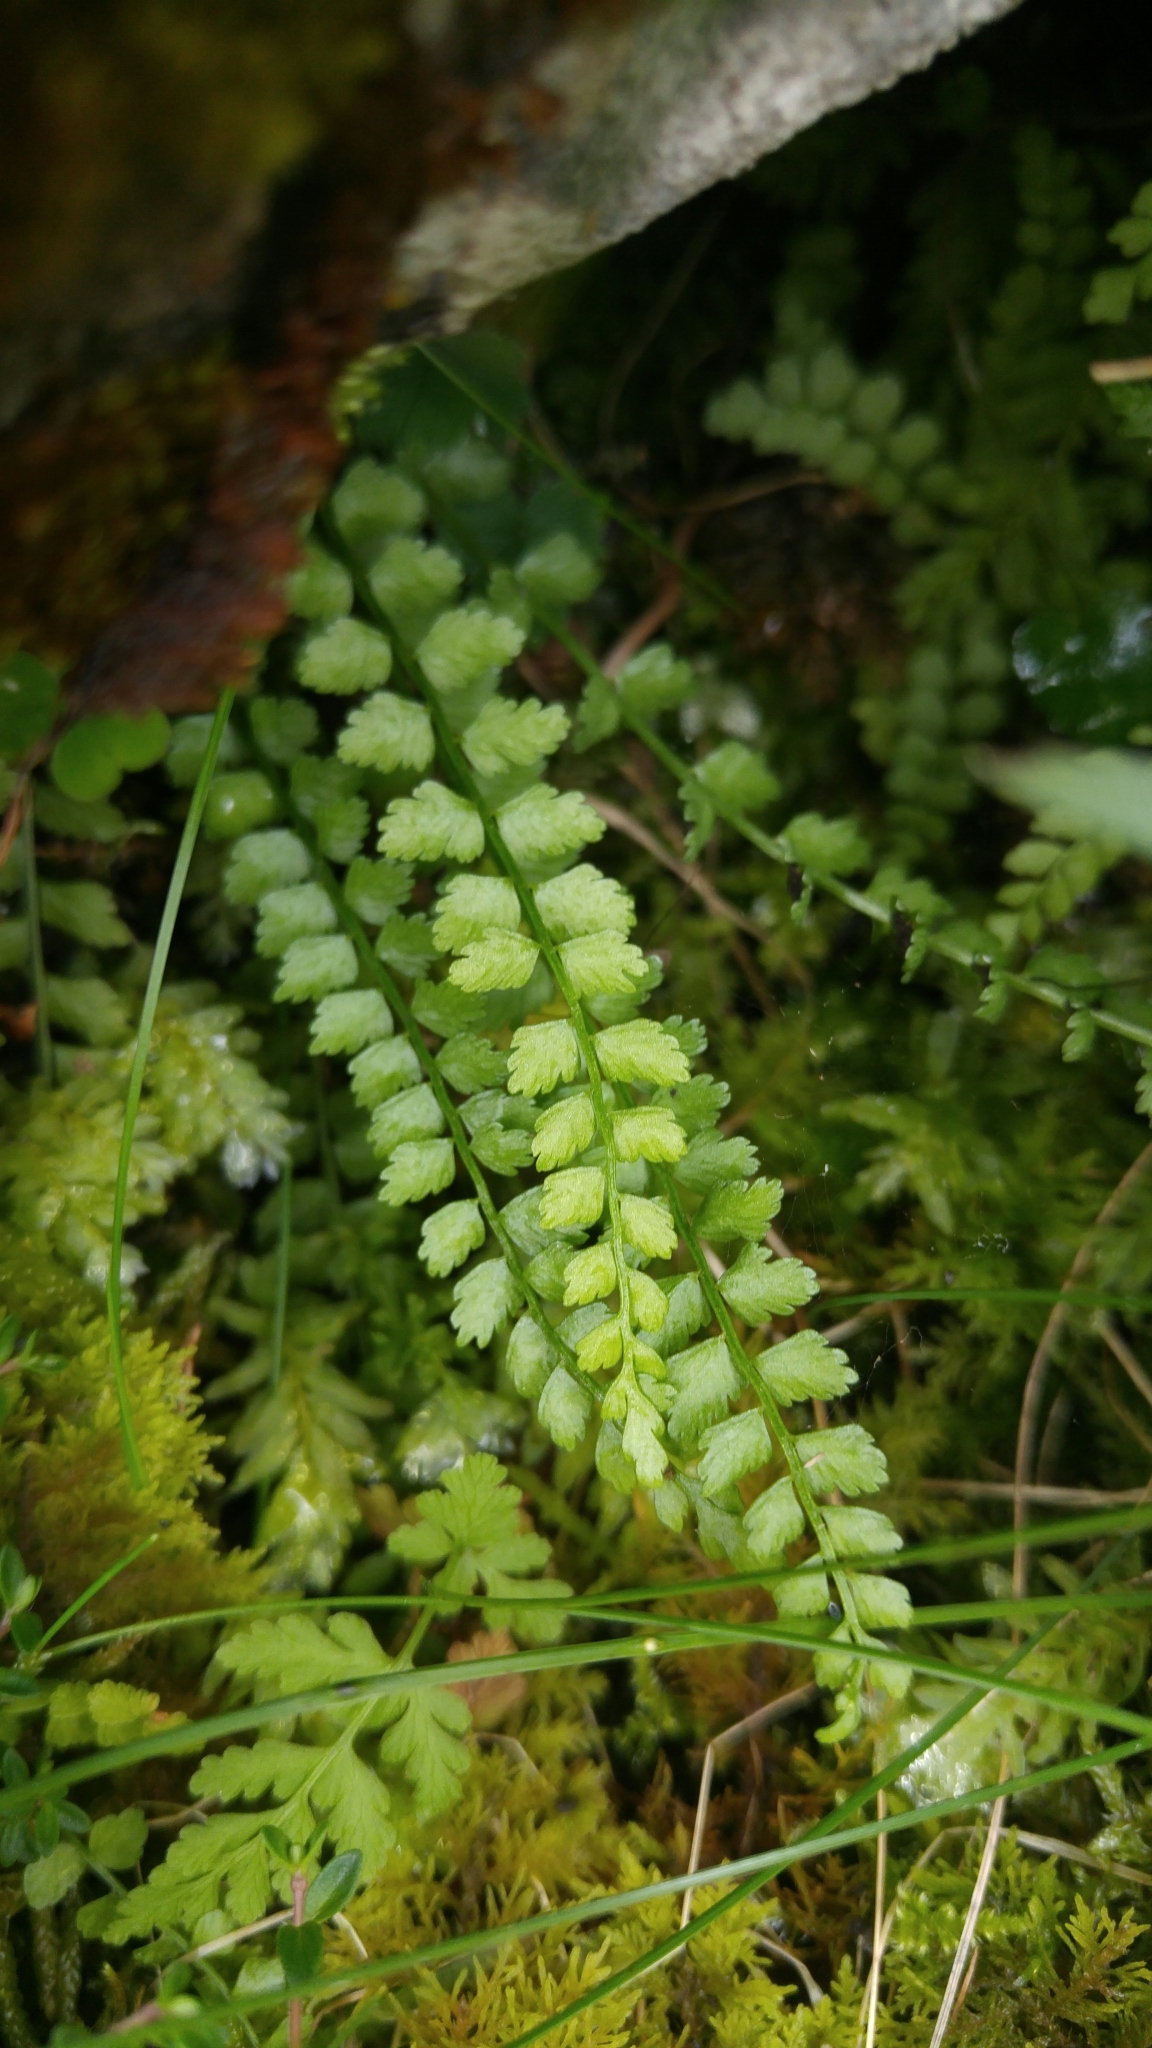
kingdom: Plantae
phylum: Tracheophyta
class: Polypodiopsida
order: Polypodiales
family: Aspleniaceae
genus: Asplenium
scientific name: Asplenium viride
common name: Green spleenwort
